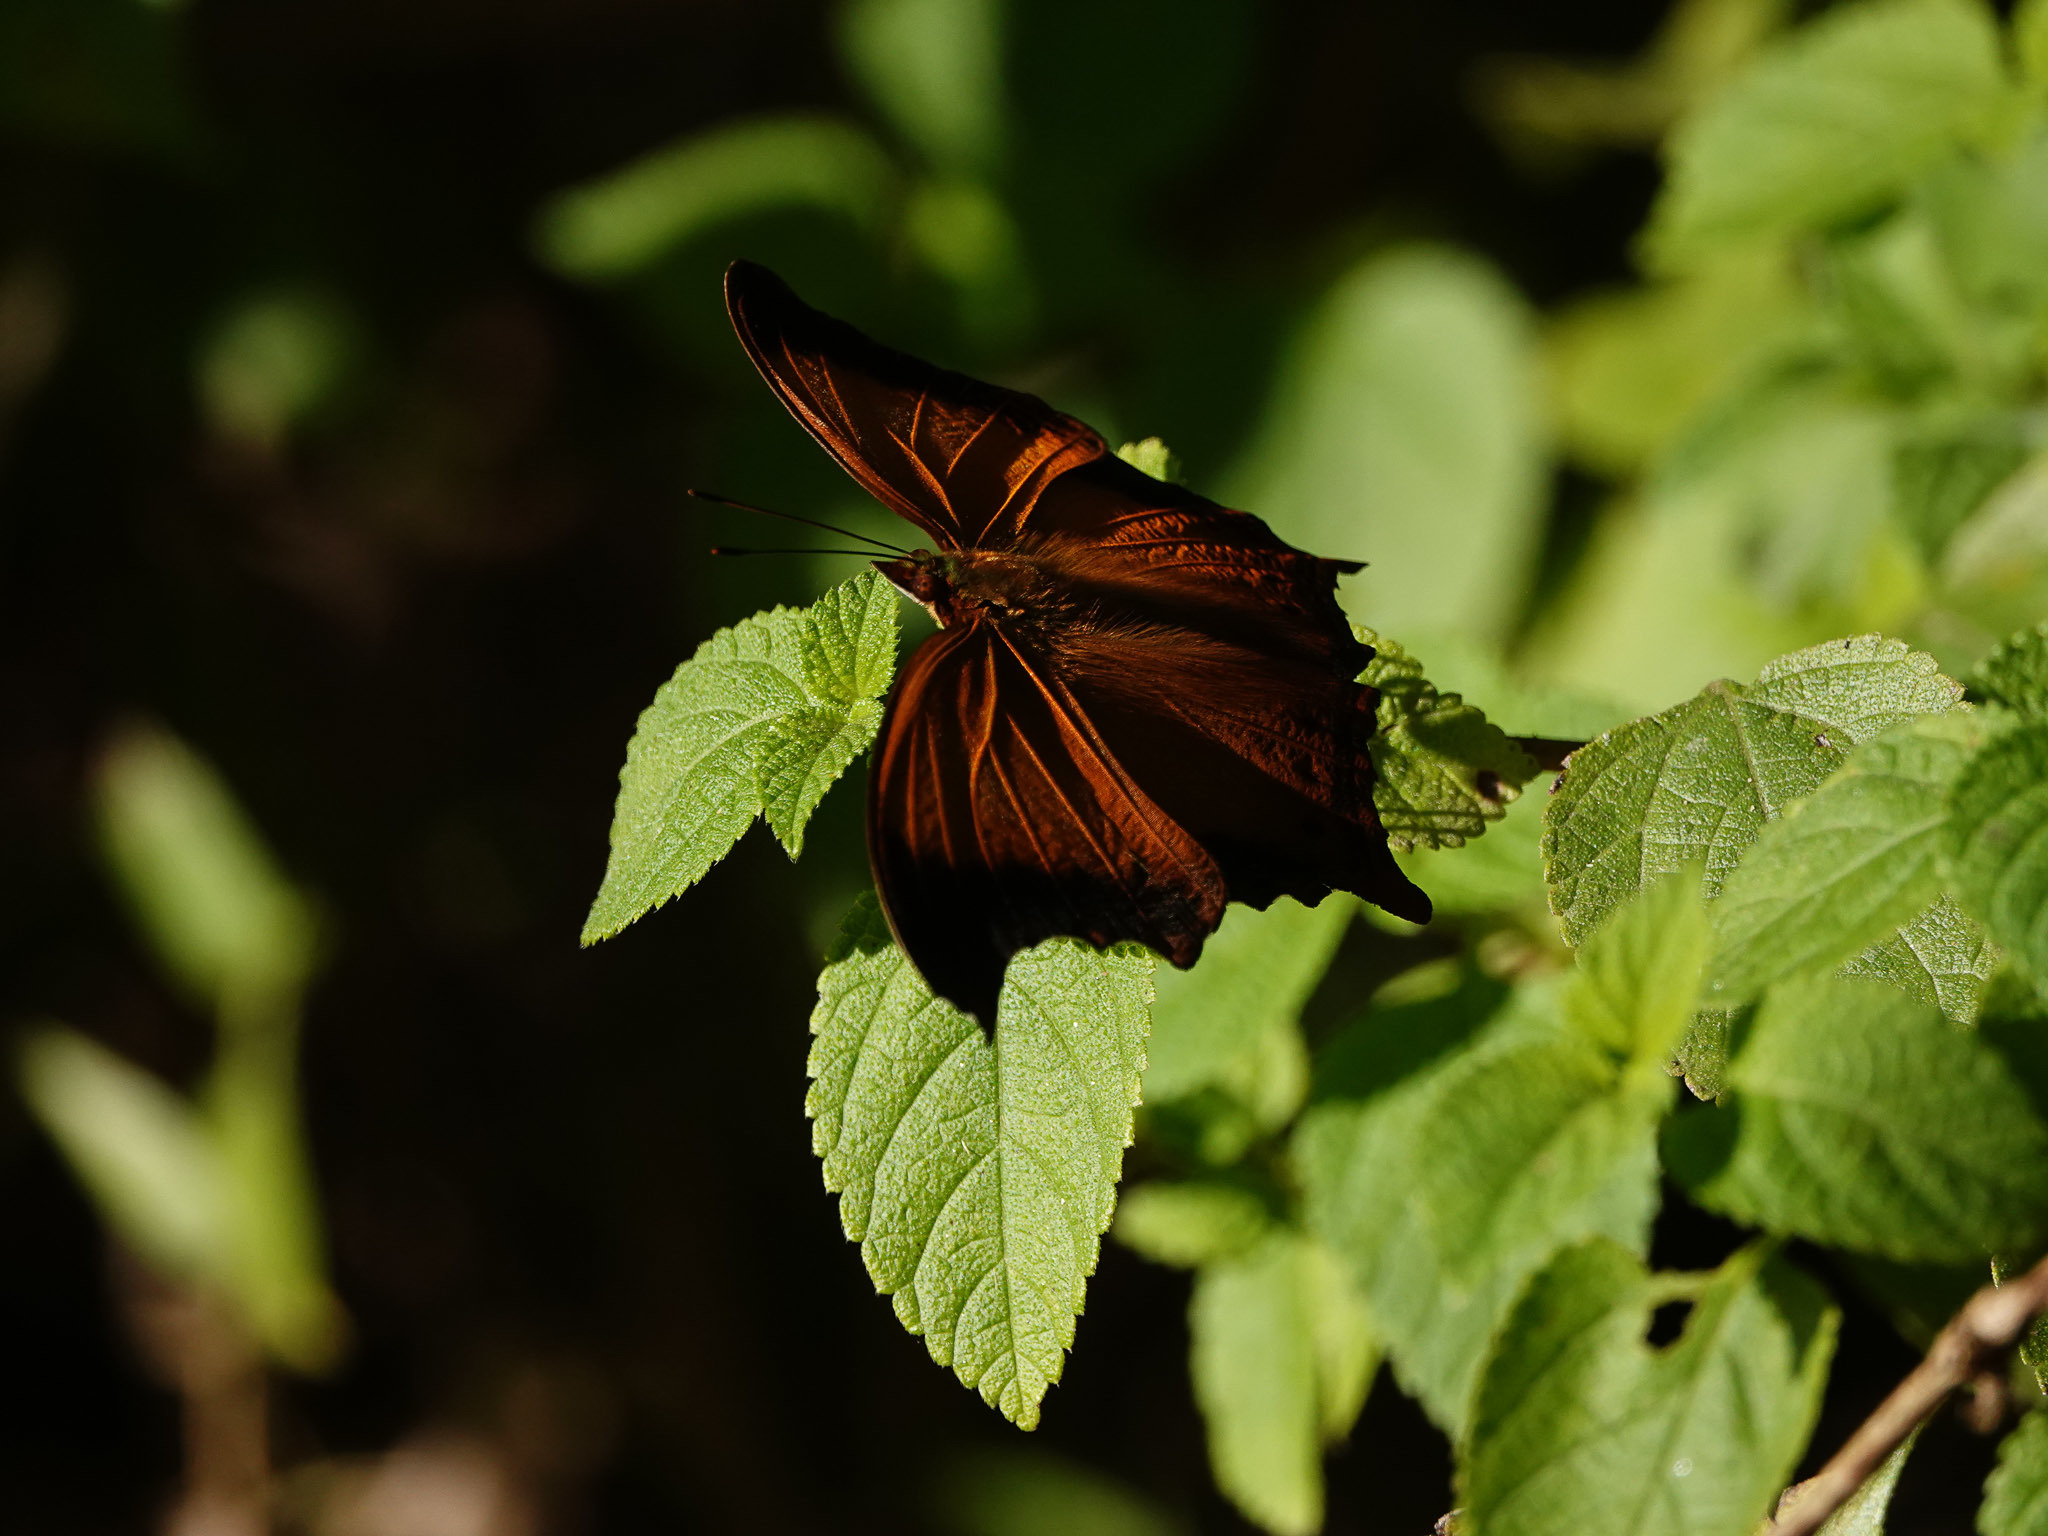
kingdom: Animalia
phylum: Arthropoda
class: Insecta
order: Lepidoptera
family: Nymphalidae
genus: Rhinopalpa
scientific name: Rhinopalpa polynice
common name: Wizard
